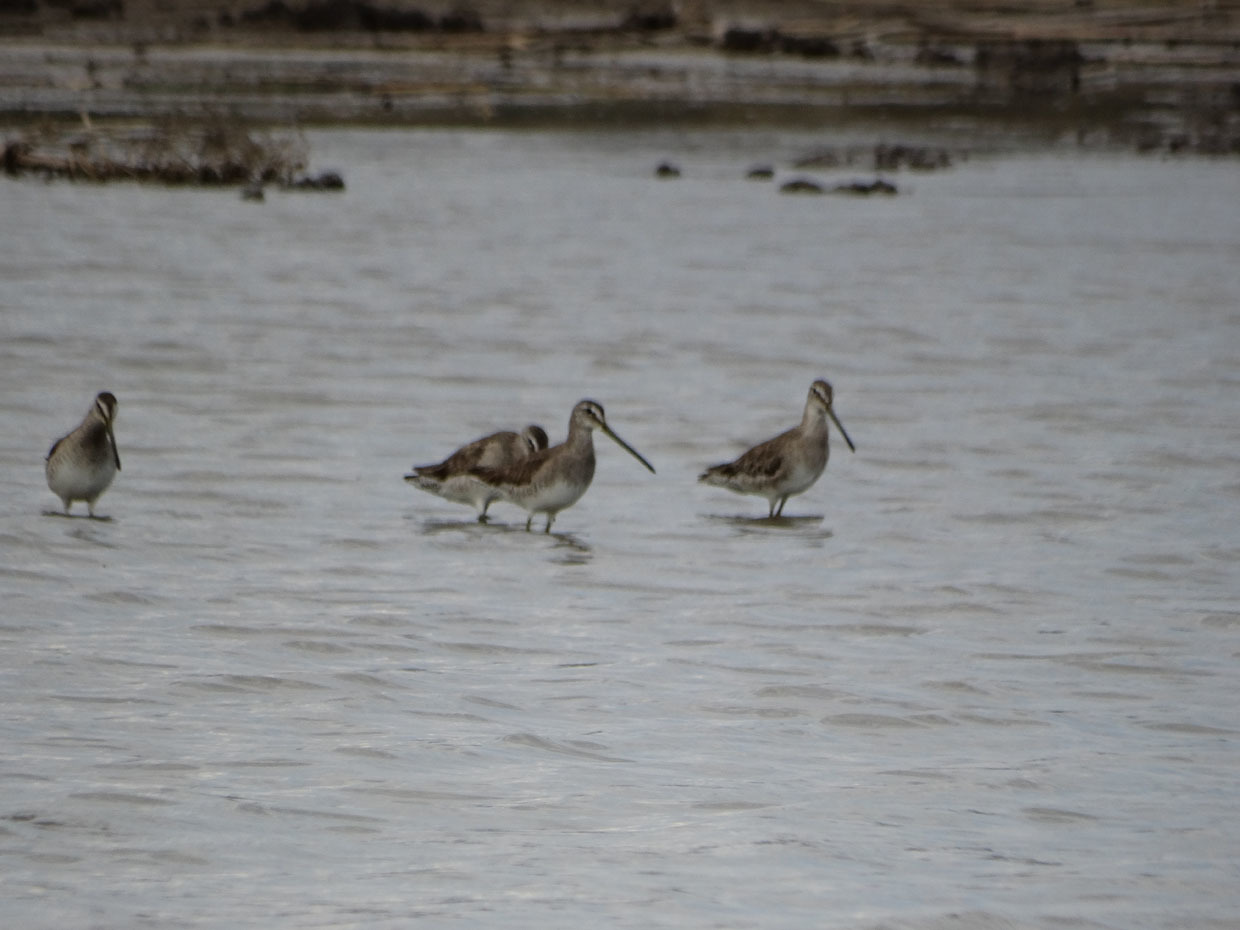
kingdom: Animalia
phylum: Chordata
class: Aves
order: Charadriiformes
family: Scolopacidae
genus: Limnodromus
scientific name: Limnodromus scolopaceus
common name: Long-billed dowitcher
